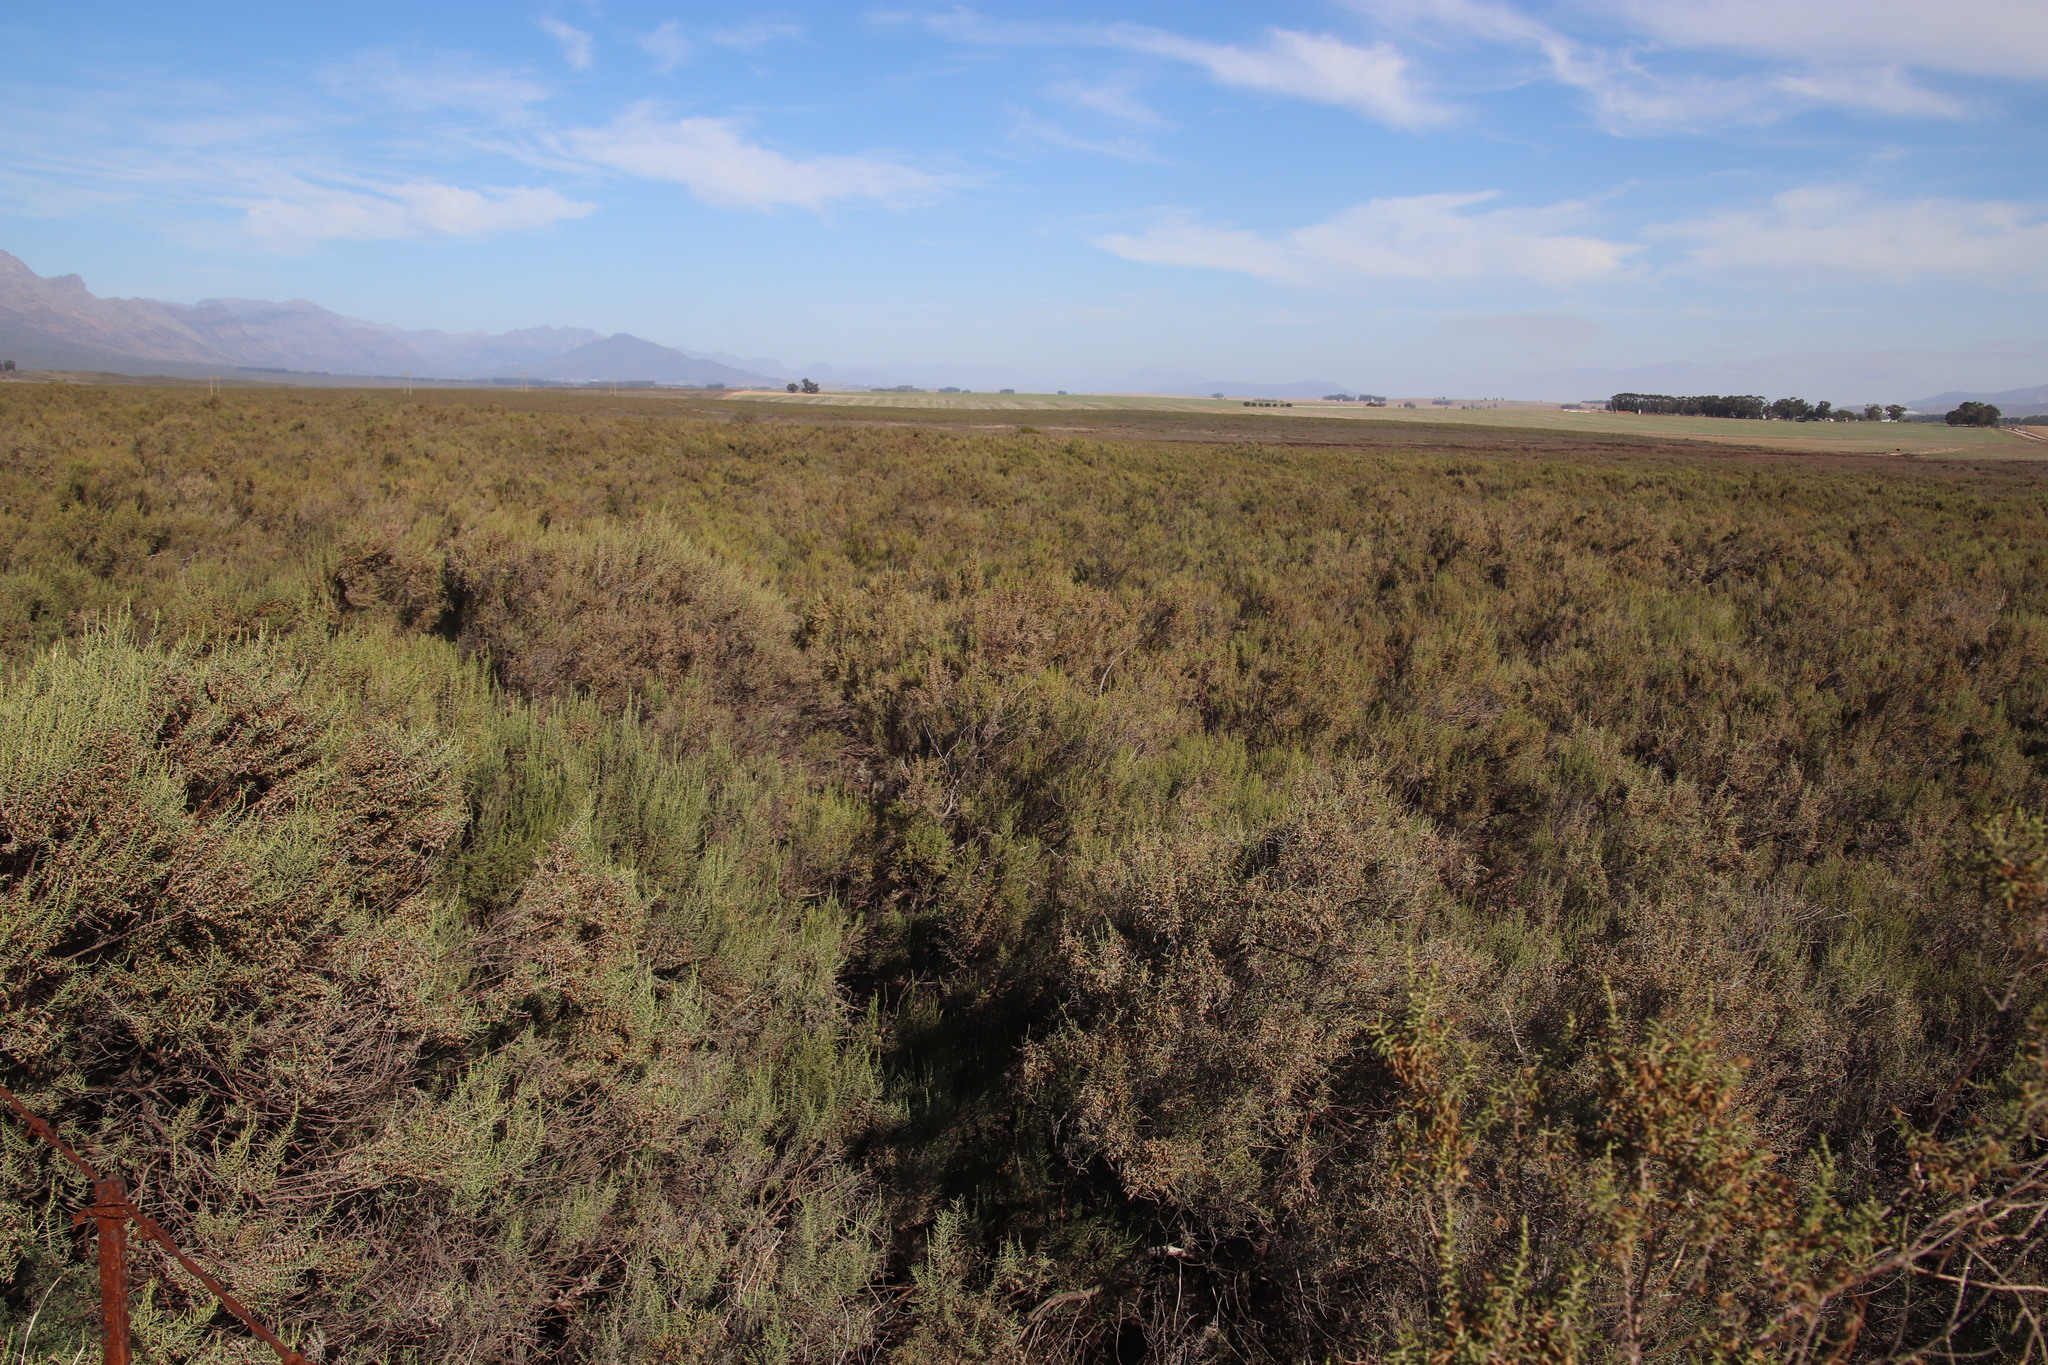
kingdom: Plantae
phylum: Tracheophyta
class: Magnoliopsida
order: Asterales
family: Asteraceae
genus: Dicerothamnus
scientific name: Dicerothamnus rhinocerotis
